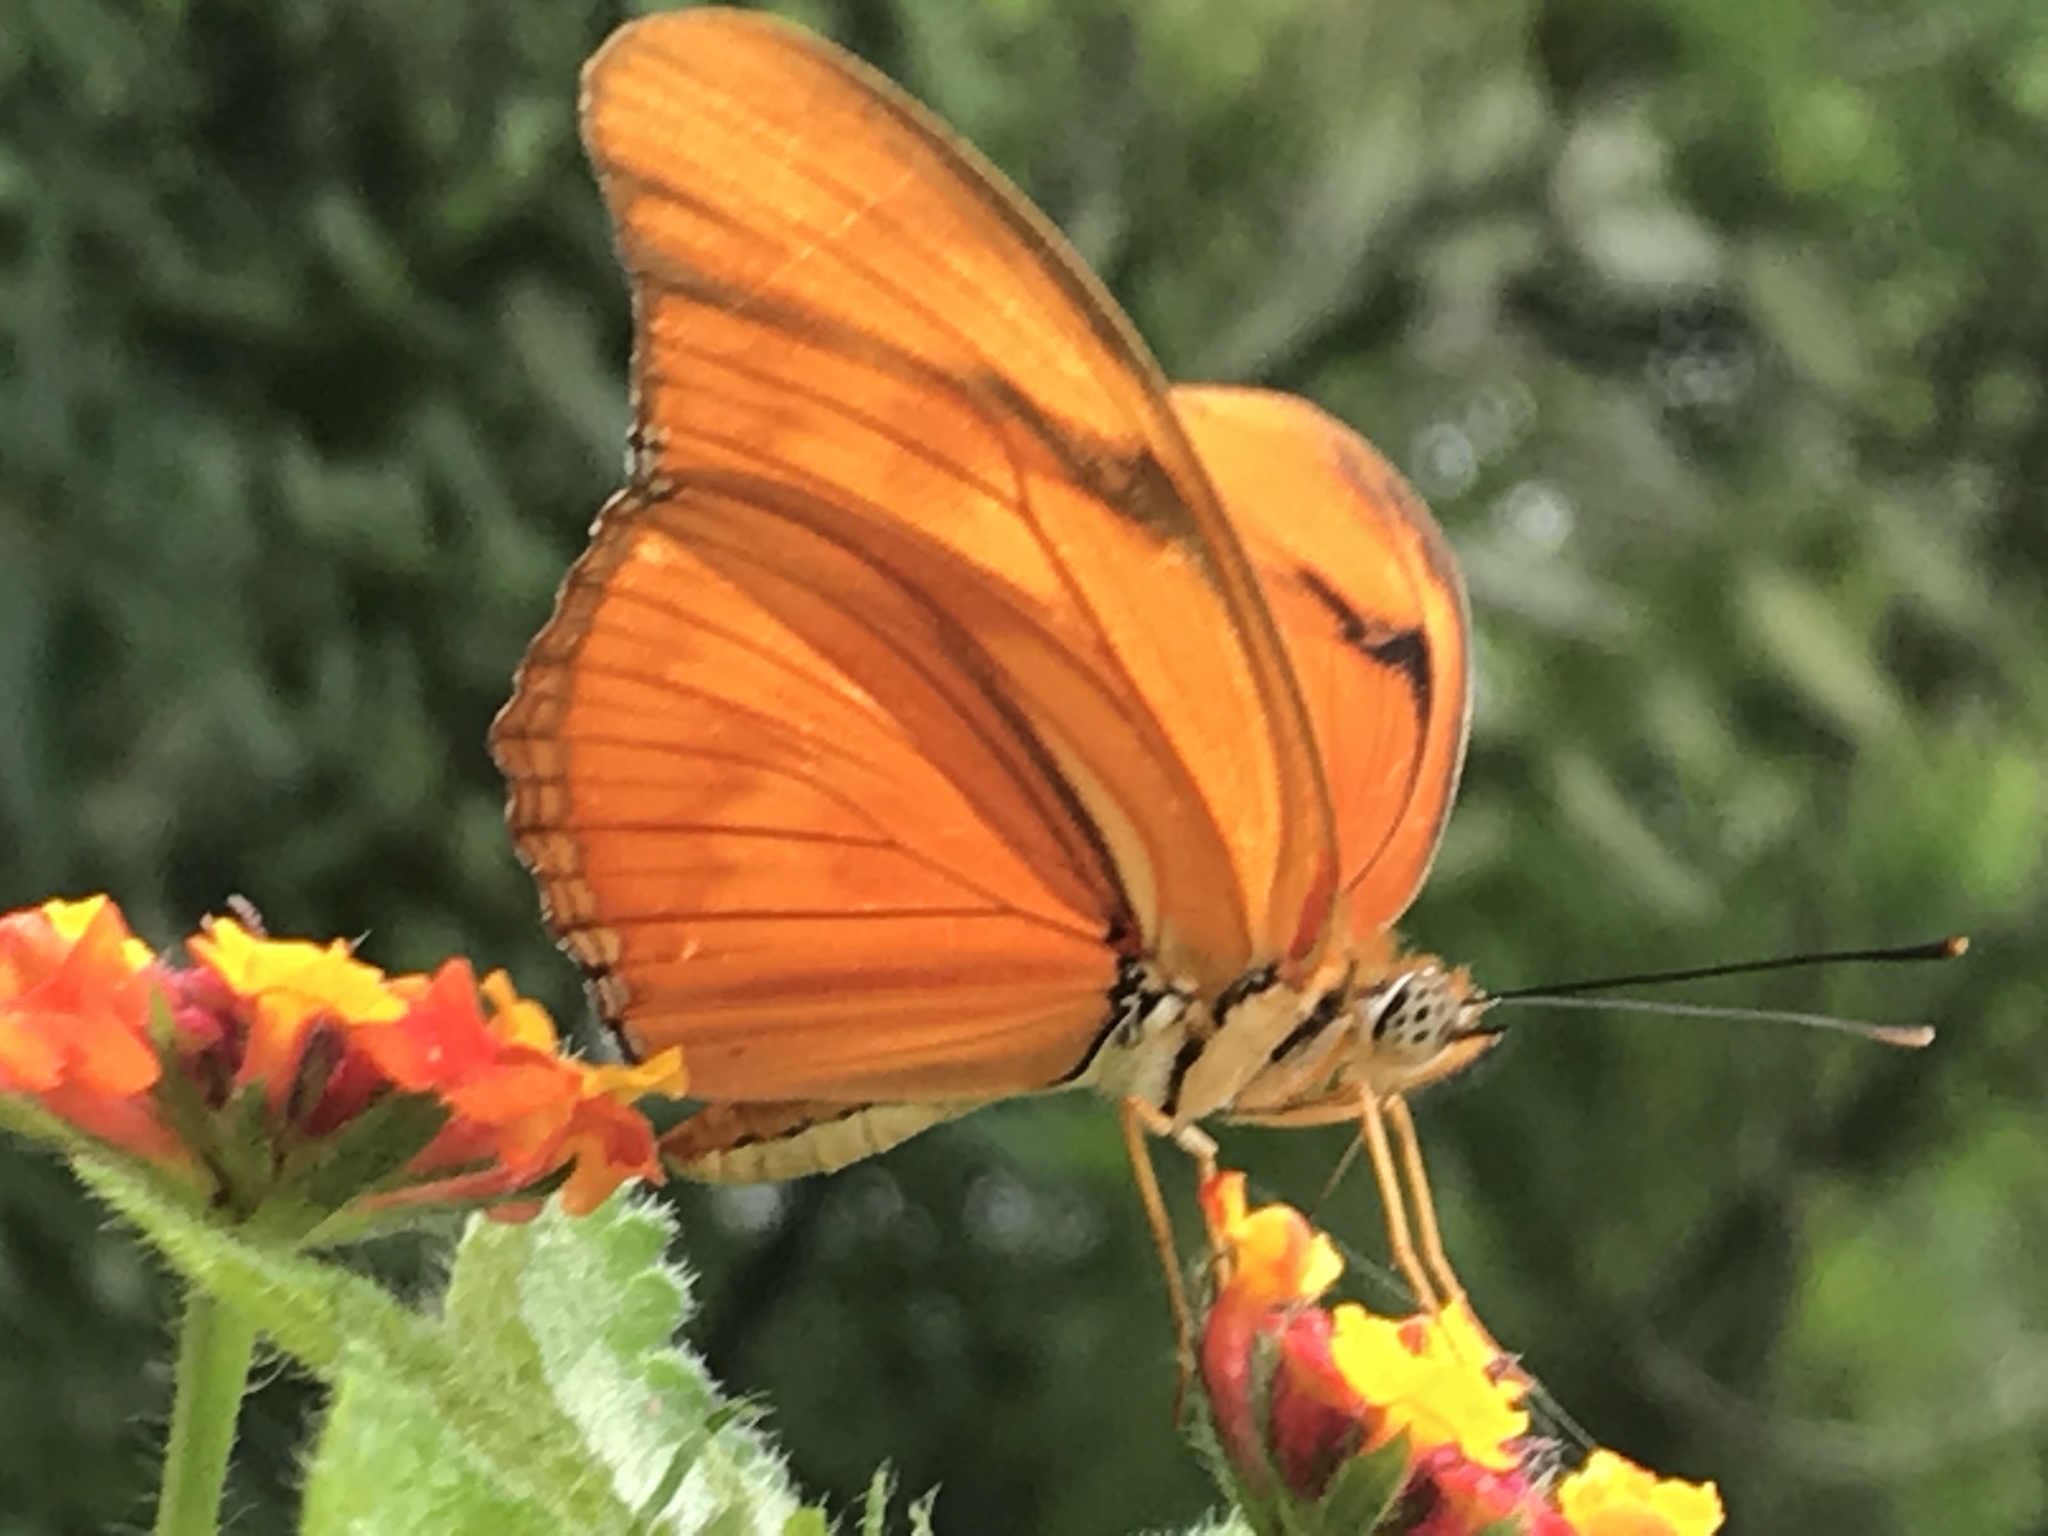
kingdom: Animalia
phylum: Arthropoda
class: Insecta
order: Lepidoptera
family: Nymphalidae
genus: Dryas
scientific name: Dryas iulia
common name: Flambeau
